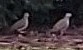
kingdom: Animalia
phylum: Chordata
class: Aves
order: Columbiformes
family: Columbidae
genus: Zenaida
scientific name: Zenaida macroura
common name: Mourning dove
